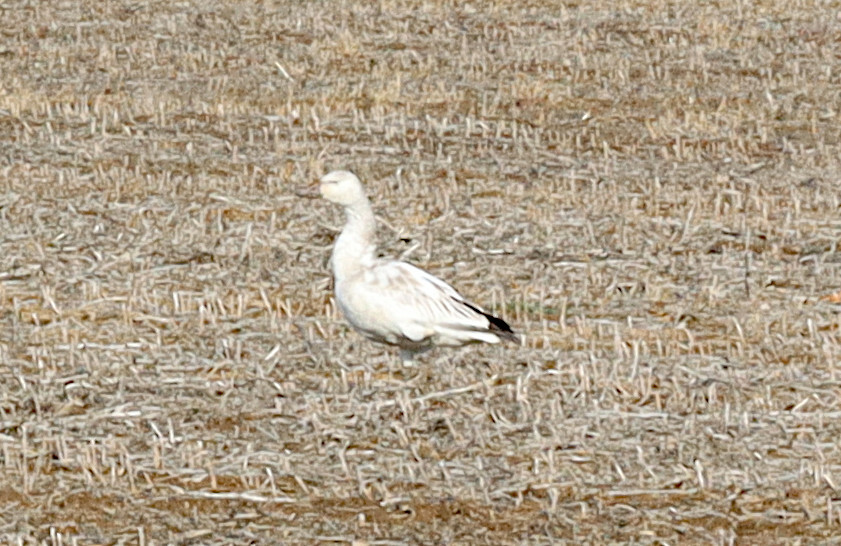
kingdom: Animalia
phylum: Chordata
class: Aves
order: Anseriformes
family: Anatidae
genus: Anser
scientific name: Anser caerulescens
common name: Snow goose
